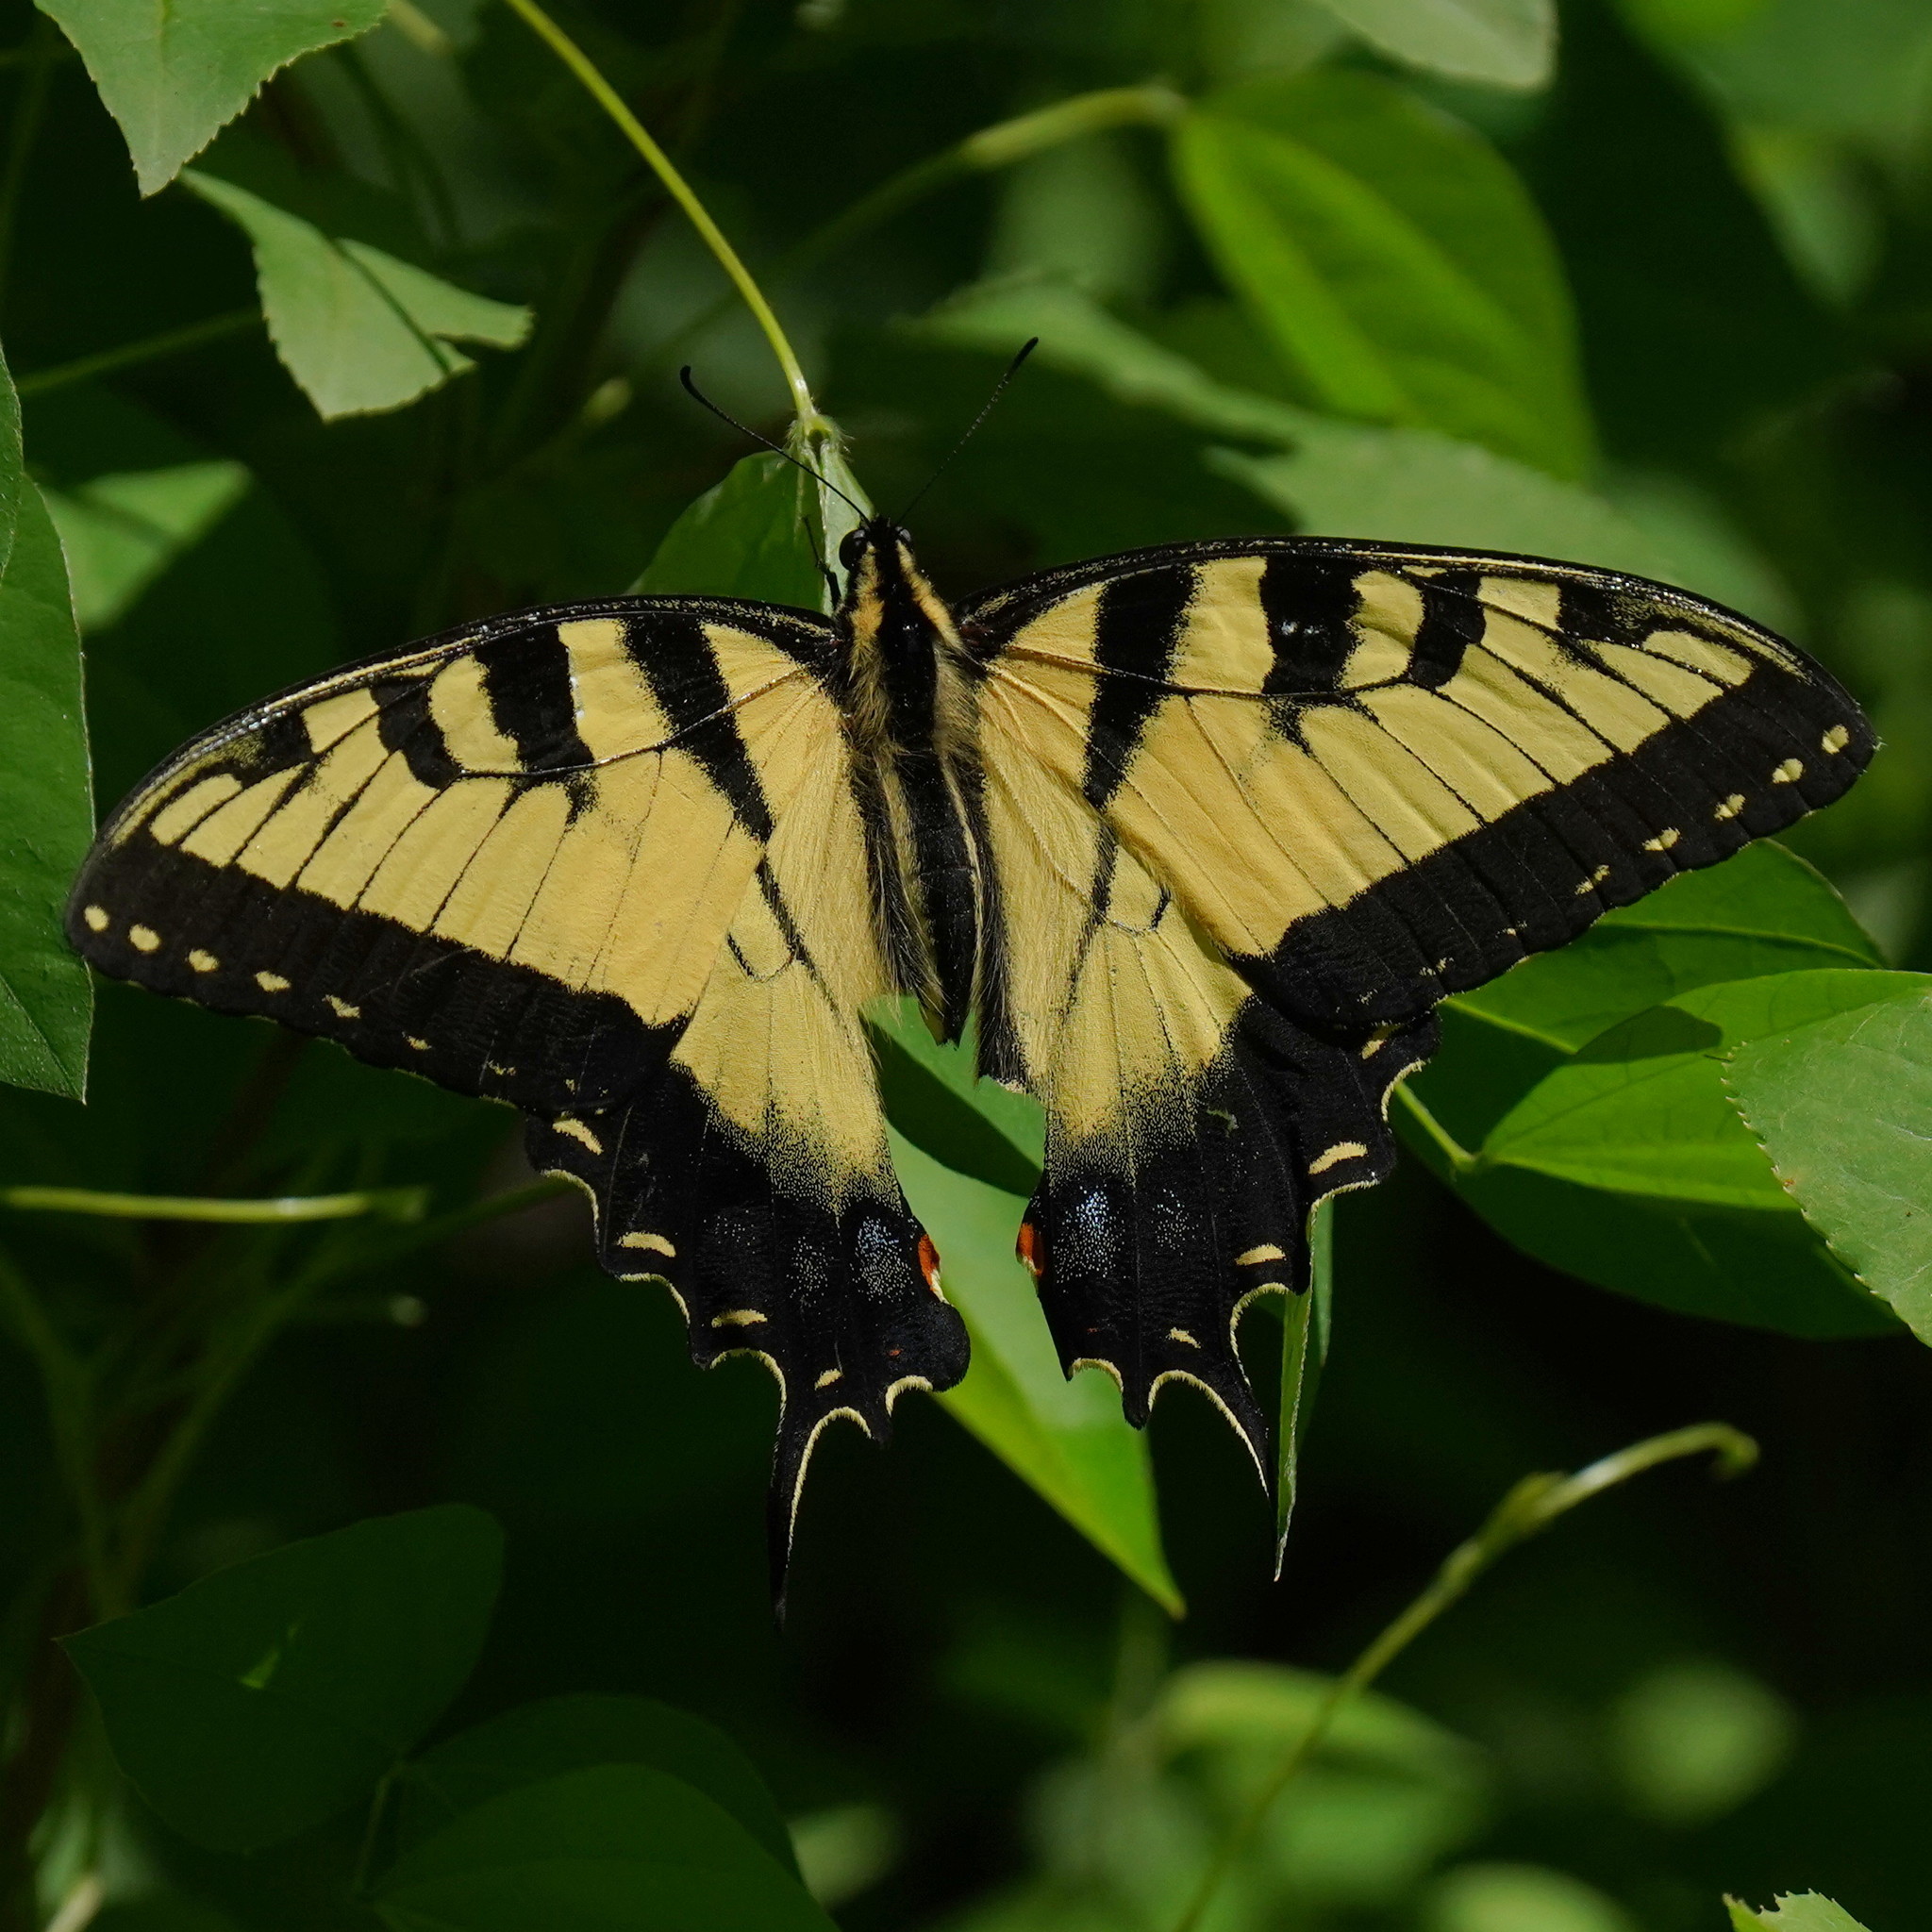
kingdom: Animalia
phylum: Arthropoda
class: Insecta
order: Lepidoptera
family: Papilionidae
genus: Papilio
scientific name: Papilio glaucus
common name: Tiger swallowtail
